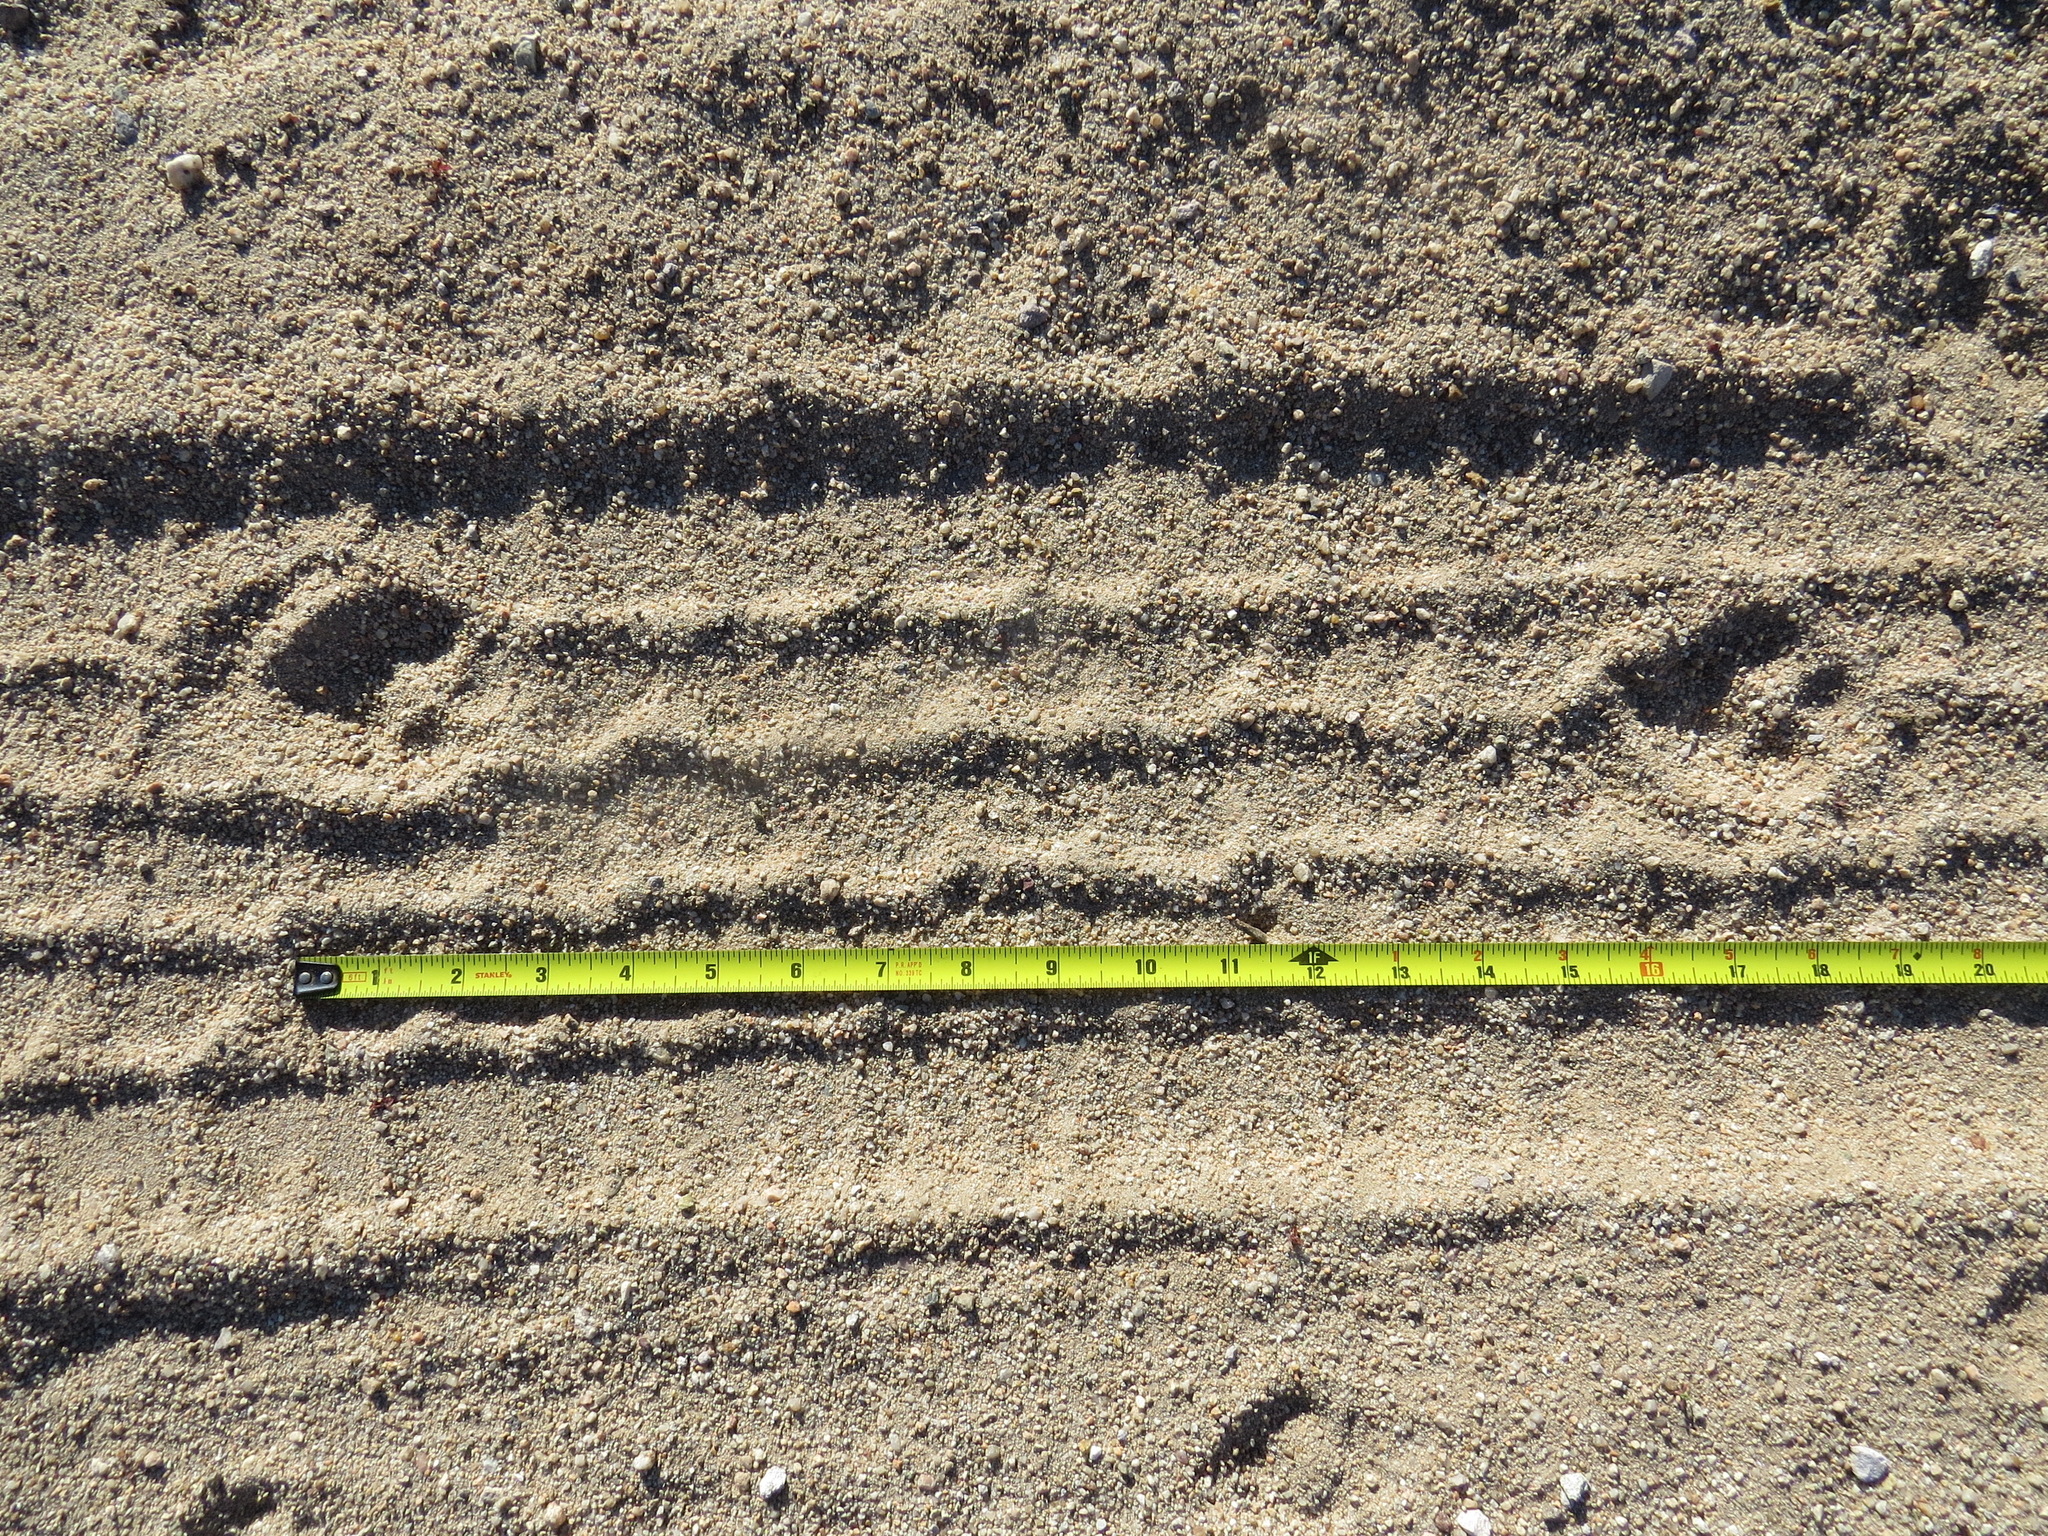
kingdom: Animalia
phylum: Chordata
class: Mammalia
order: Carnivora
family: Canidae
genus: Canis
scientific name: Canis latrans
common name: Coyote
